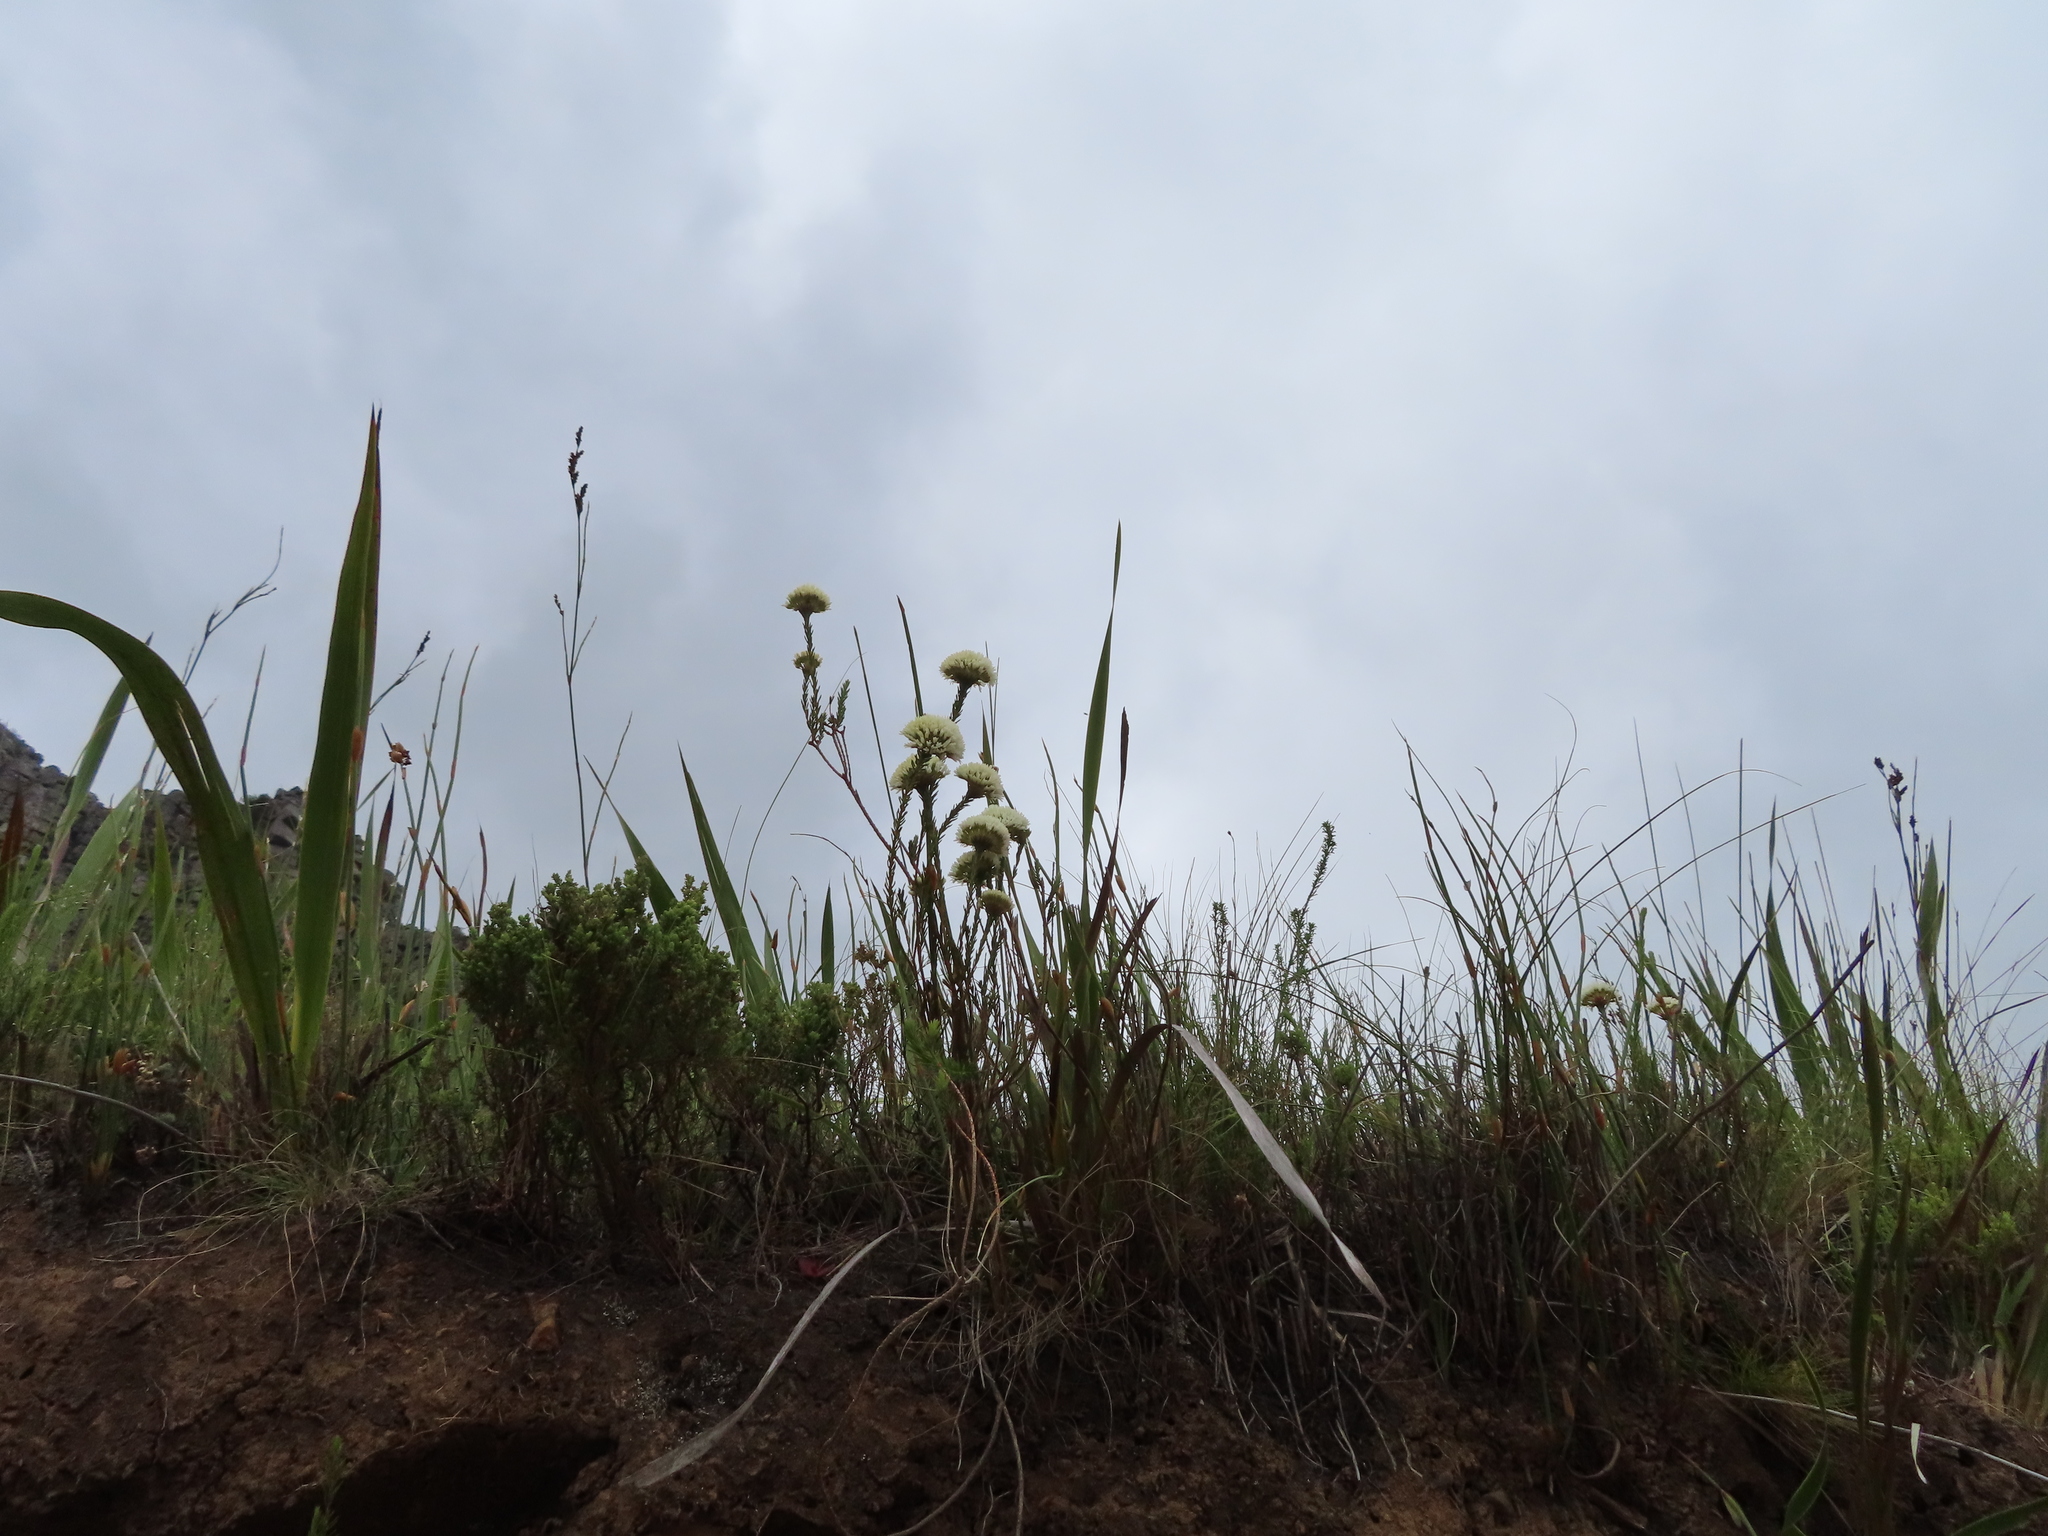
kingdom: Plantae
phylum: Tracheophyta
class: Magnoliopsida
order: Sapindales
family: Rutaceae
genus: Agathosma
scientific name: Agathosma bifida
